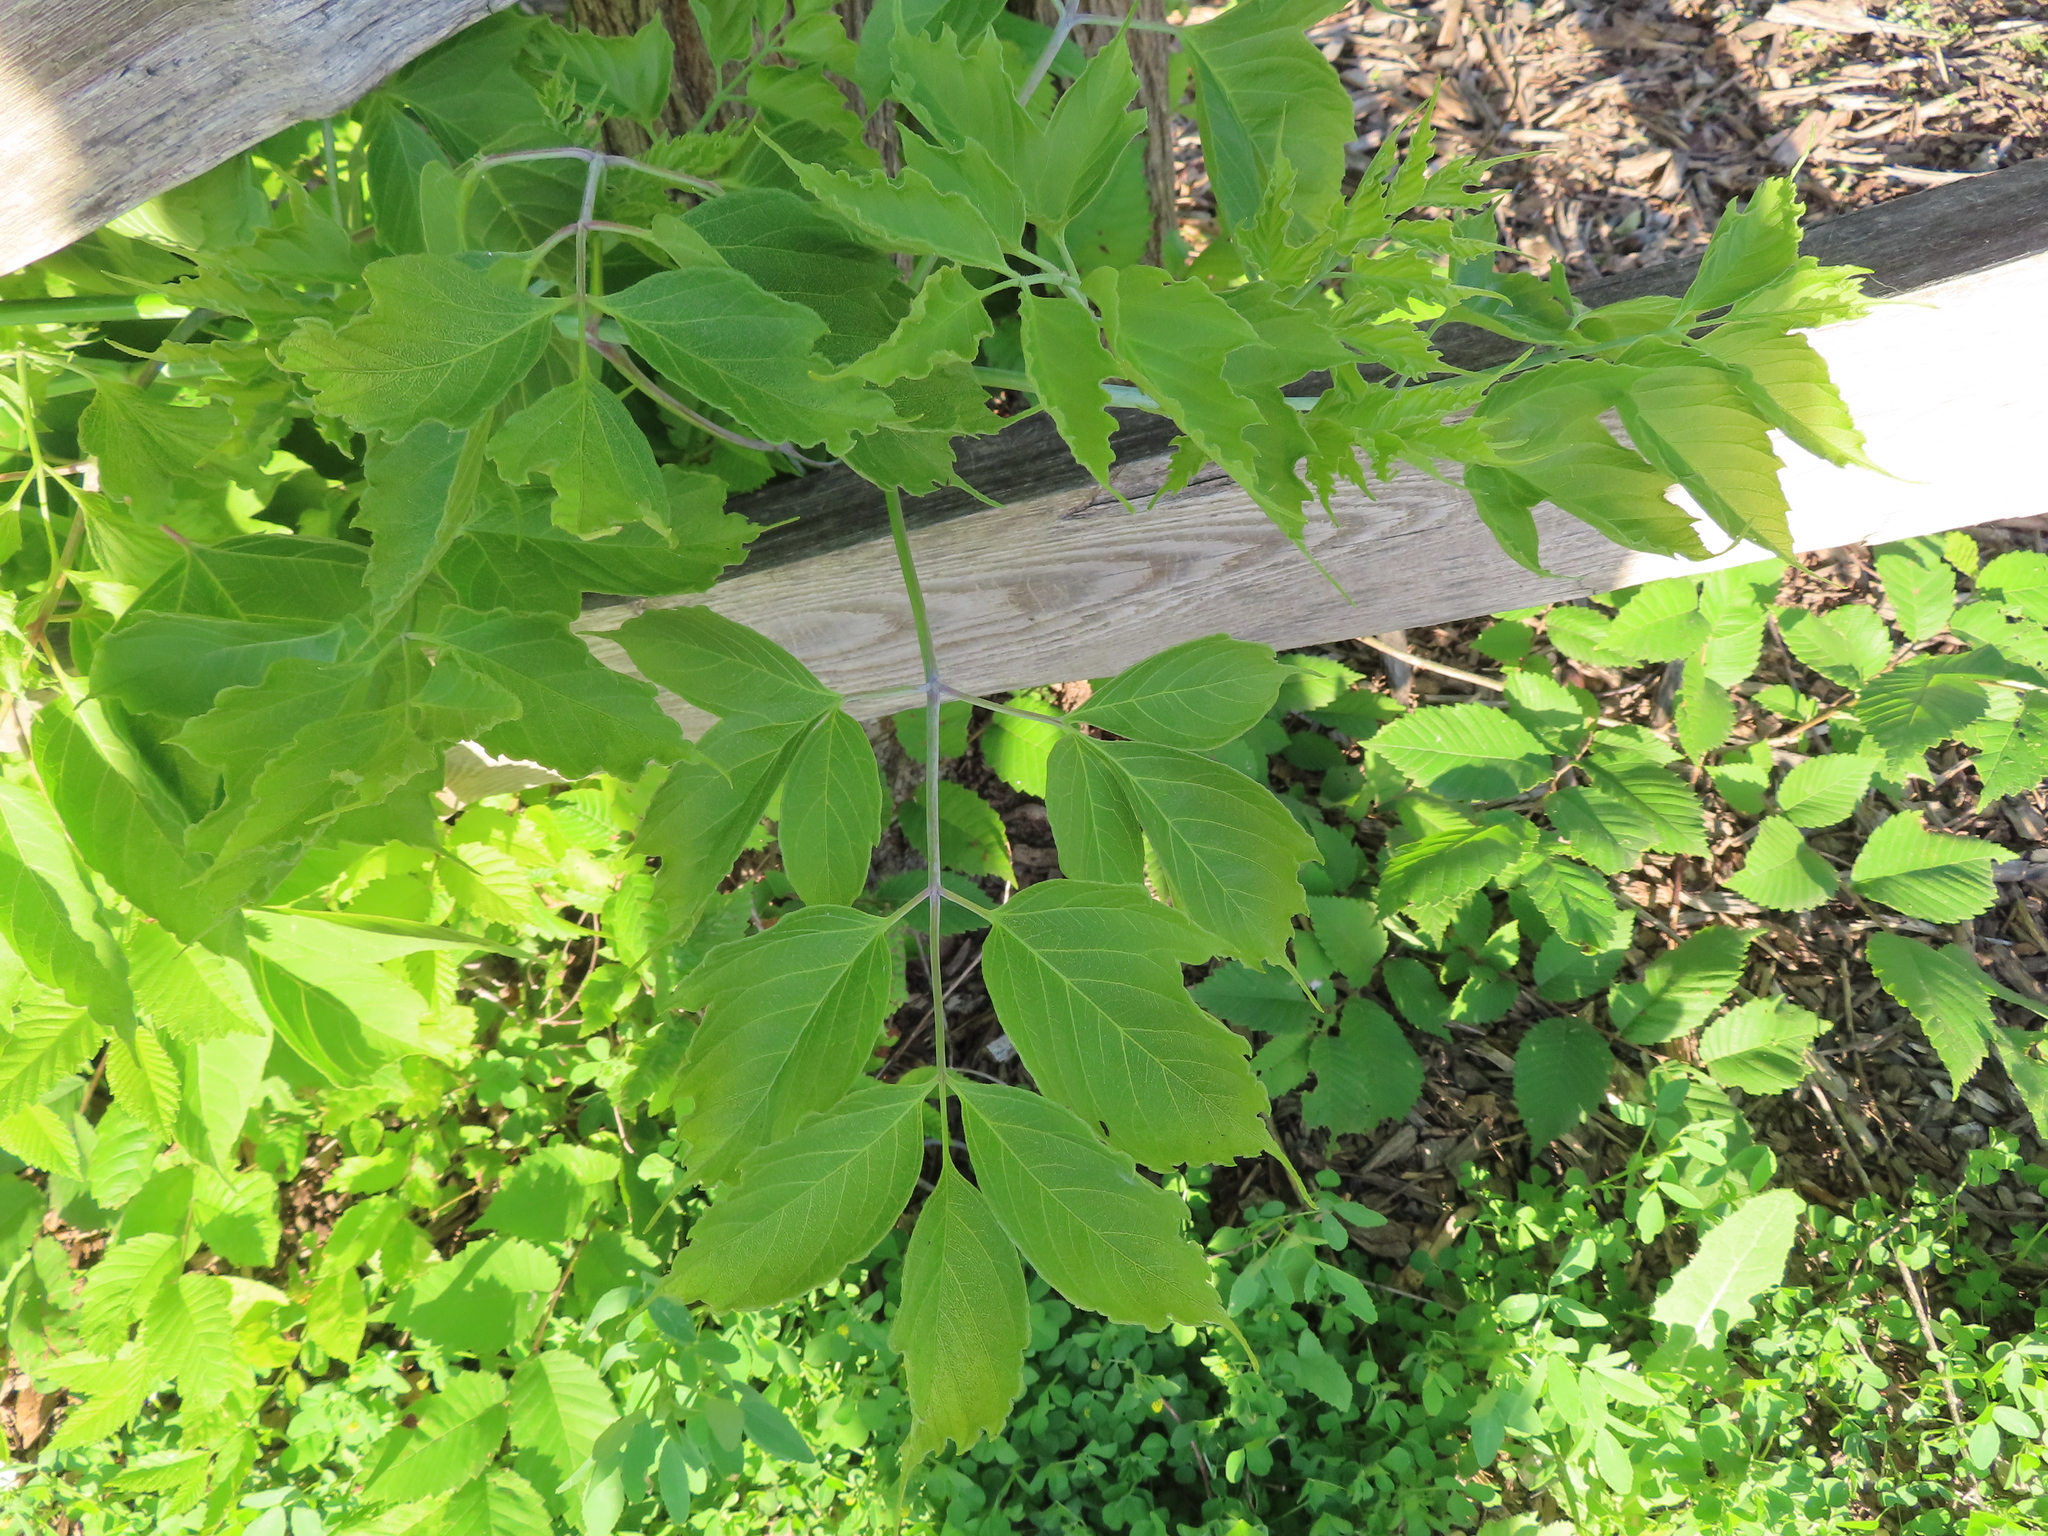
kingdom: Plantae
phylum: Tracheophyta
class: Magnoliopsida
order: Sapindales
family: Sapindaceae
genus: Acer
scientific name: Acer negundo
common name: Ashleaf maple
